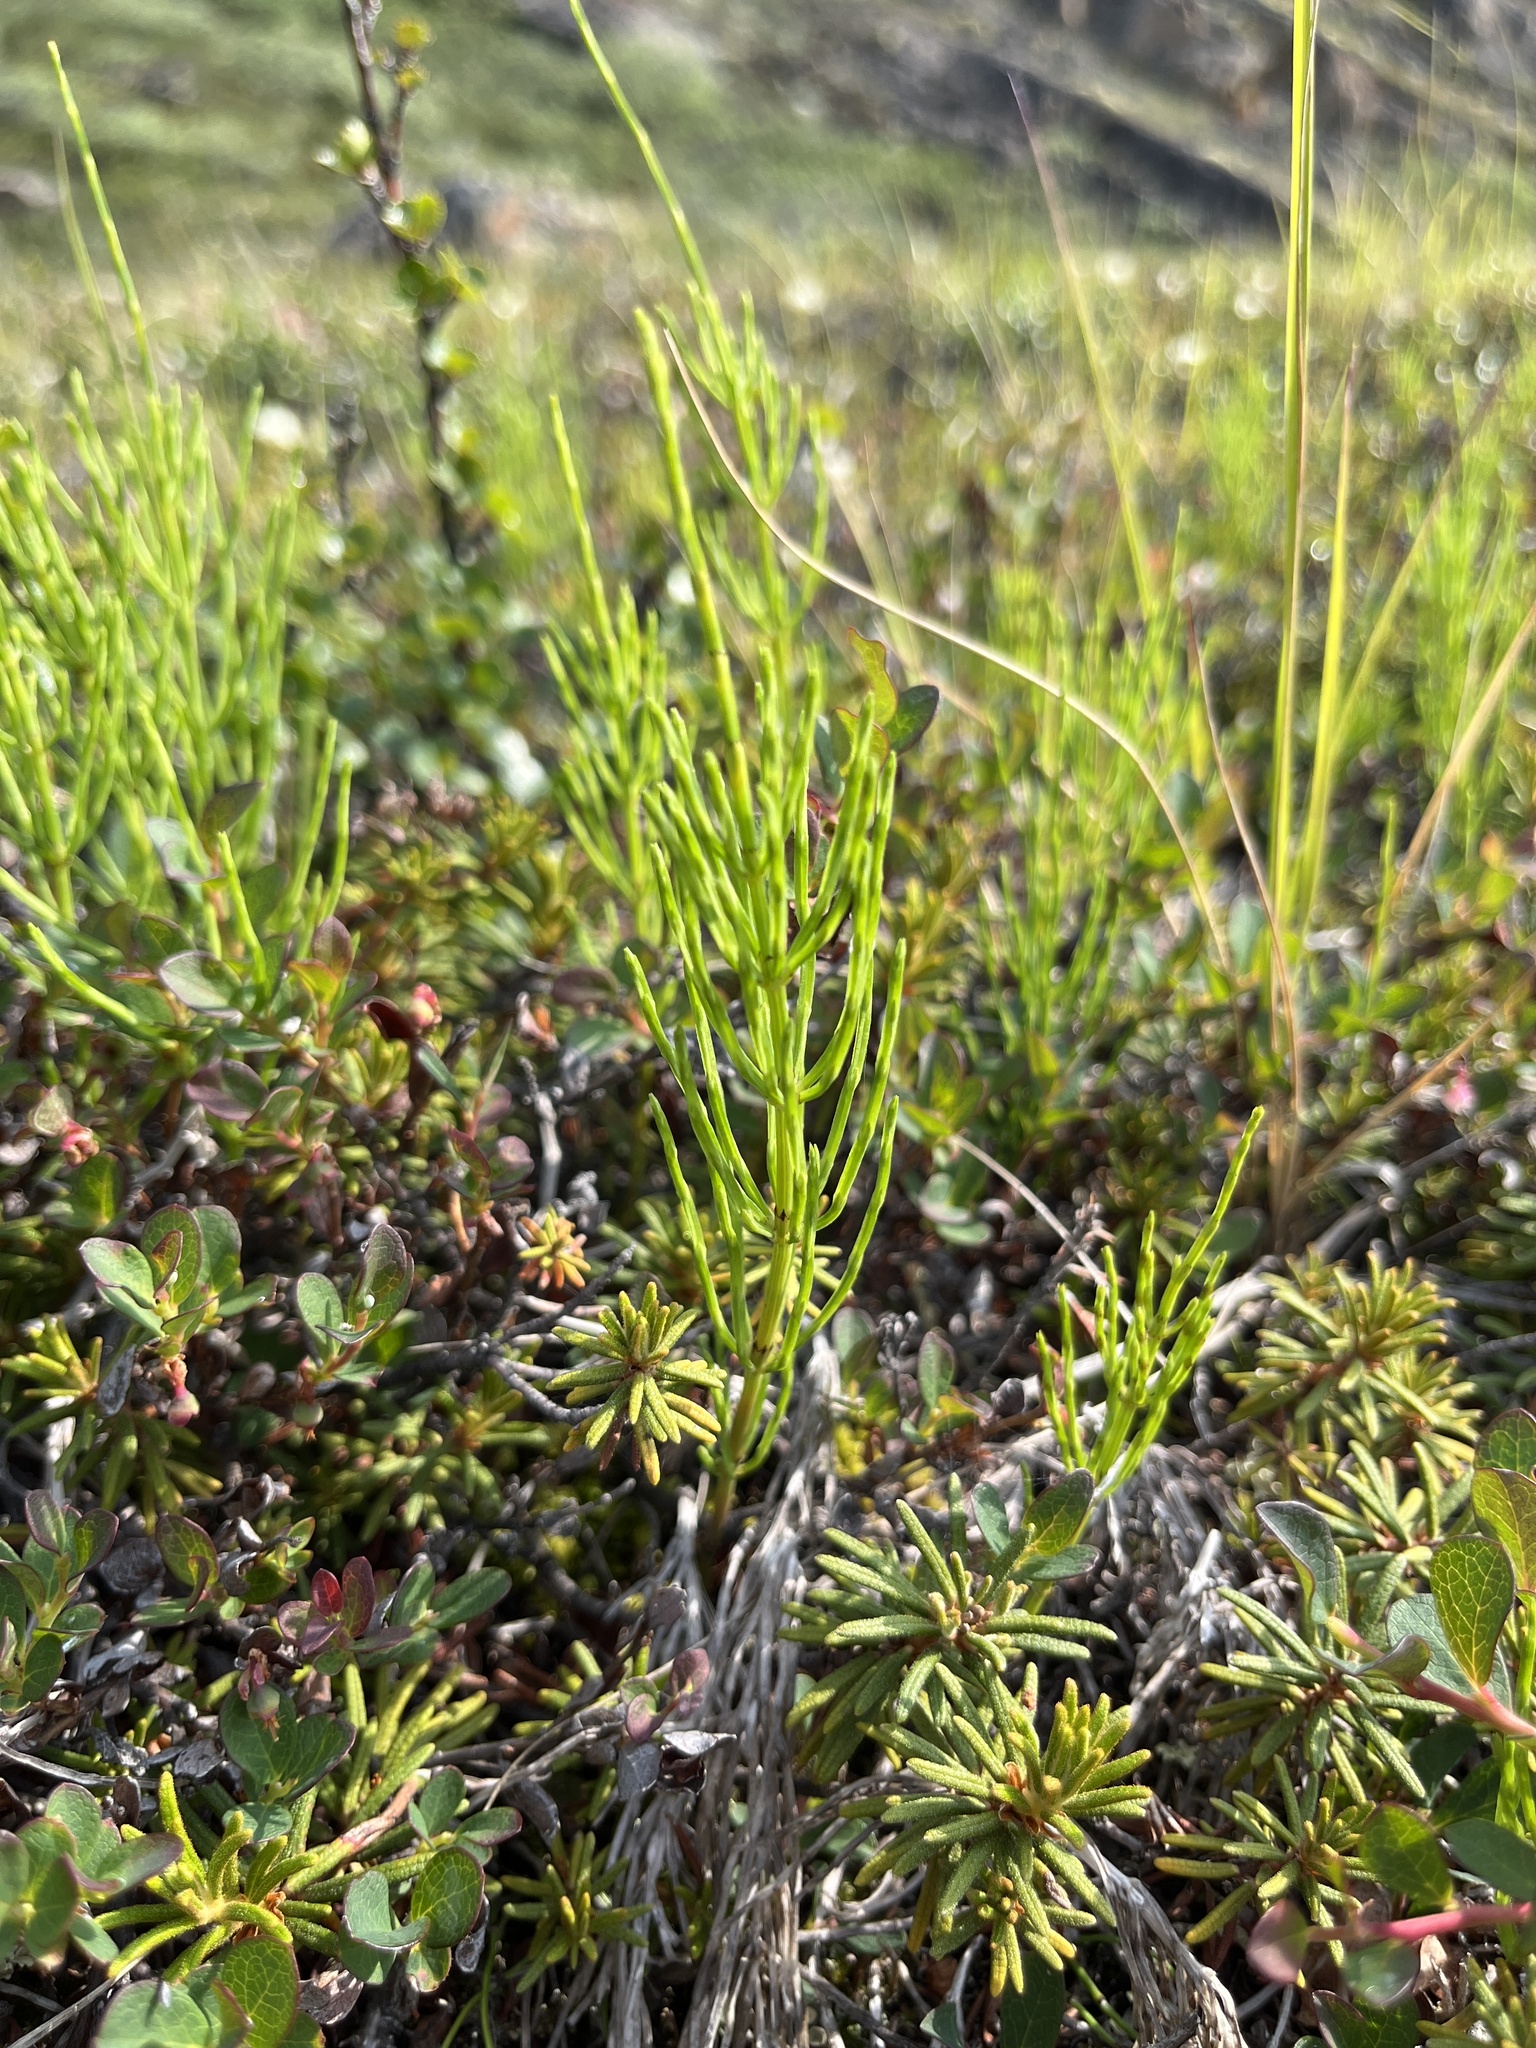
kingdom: Plantae
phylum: Tracheophyta
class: Polypodiopsida
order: Equisetales
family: Equisetaceae
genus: Equisetum
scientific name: Equisetum arvense
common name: Field horsetail
